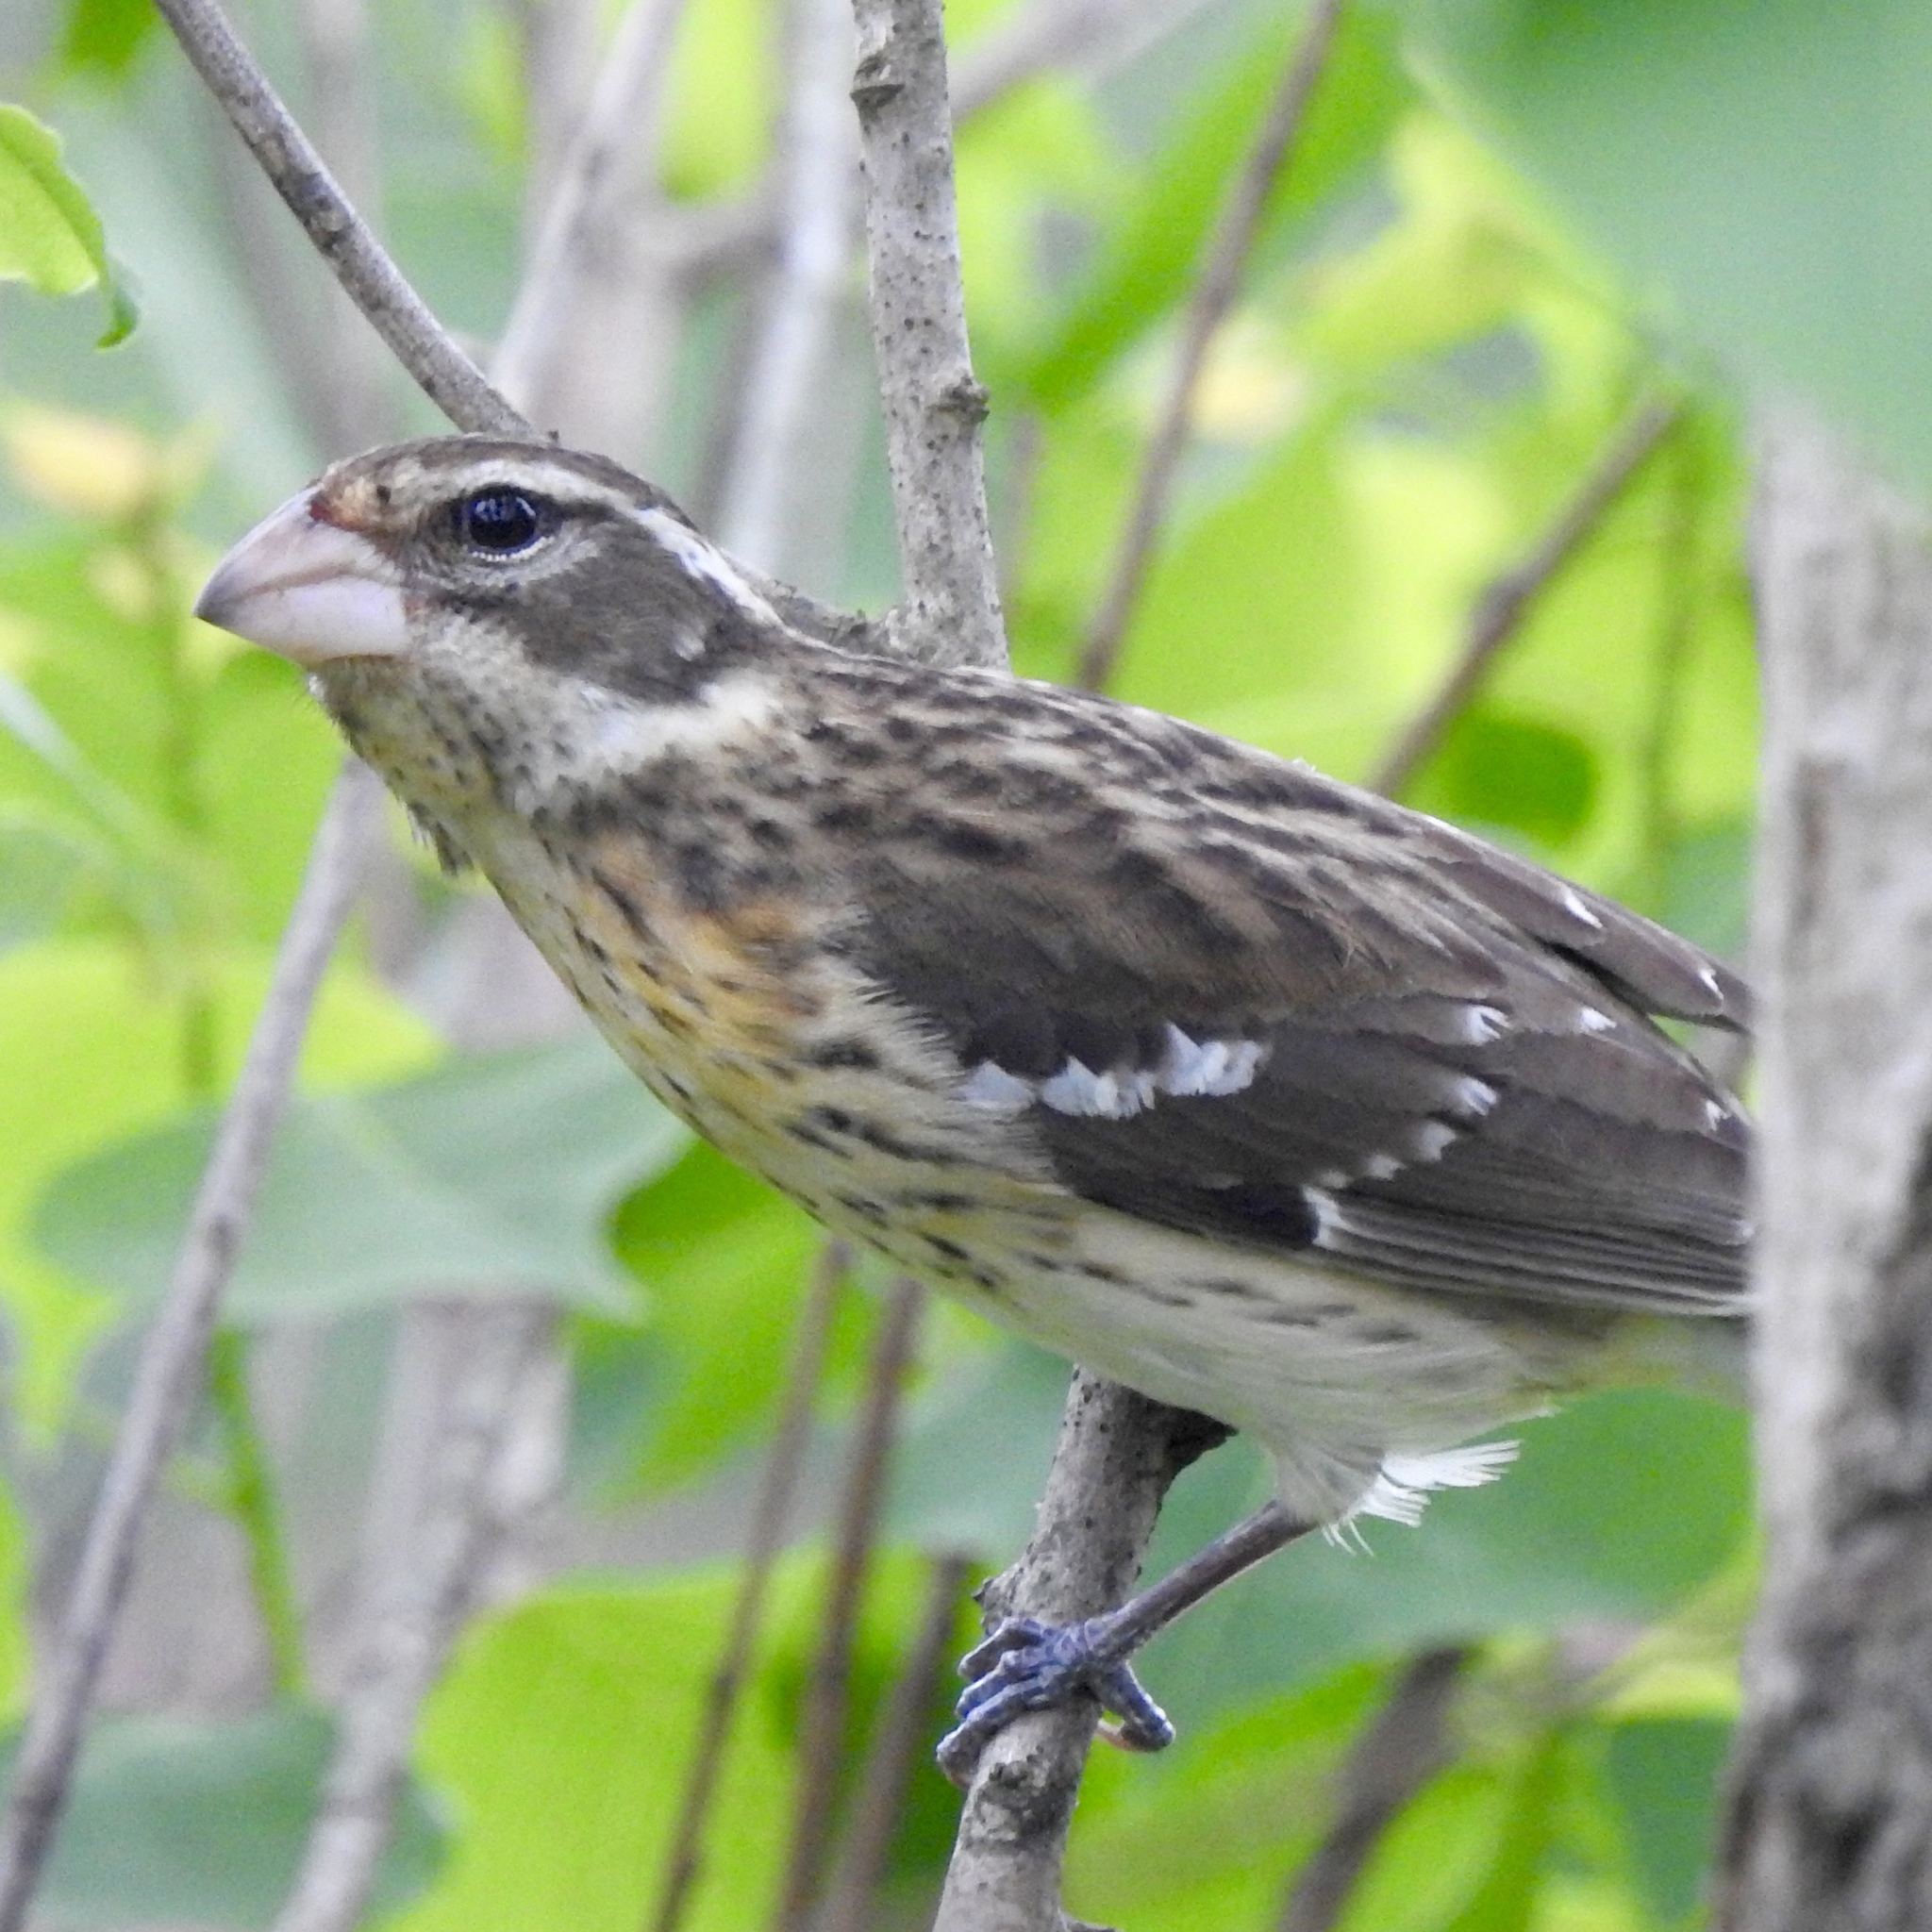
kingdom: Animalia
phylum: Chordata
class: Aves
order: Passeriformes
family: Cardinalidae
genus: Pheucticus
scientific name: Pheucticus ludovicianus
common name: Rose-breasted grosbeak
